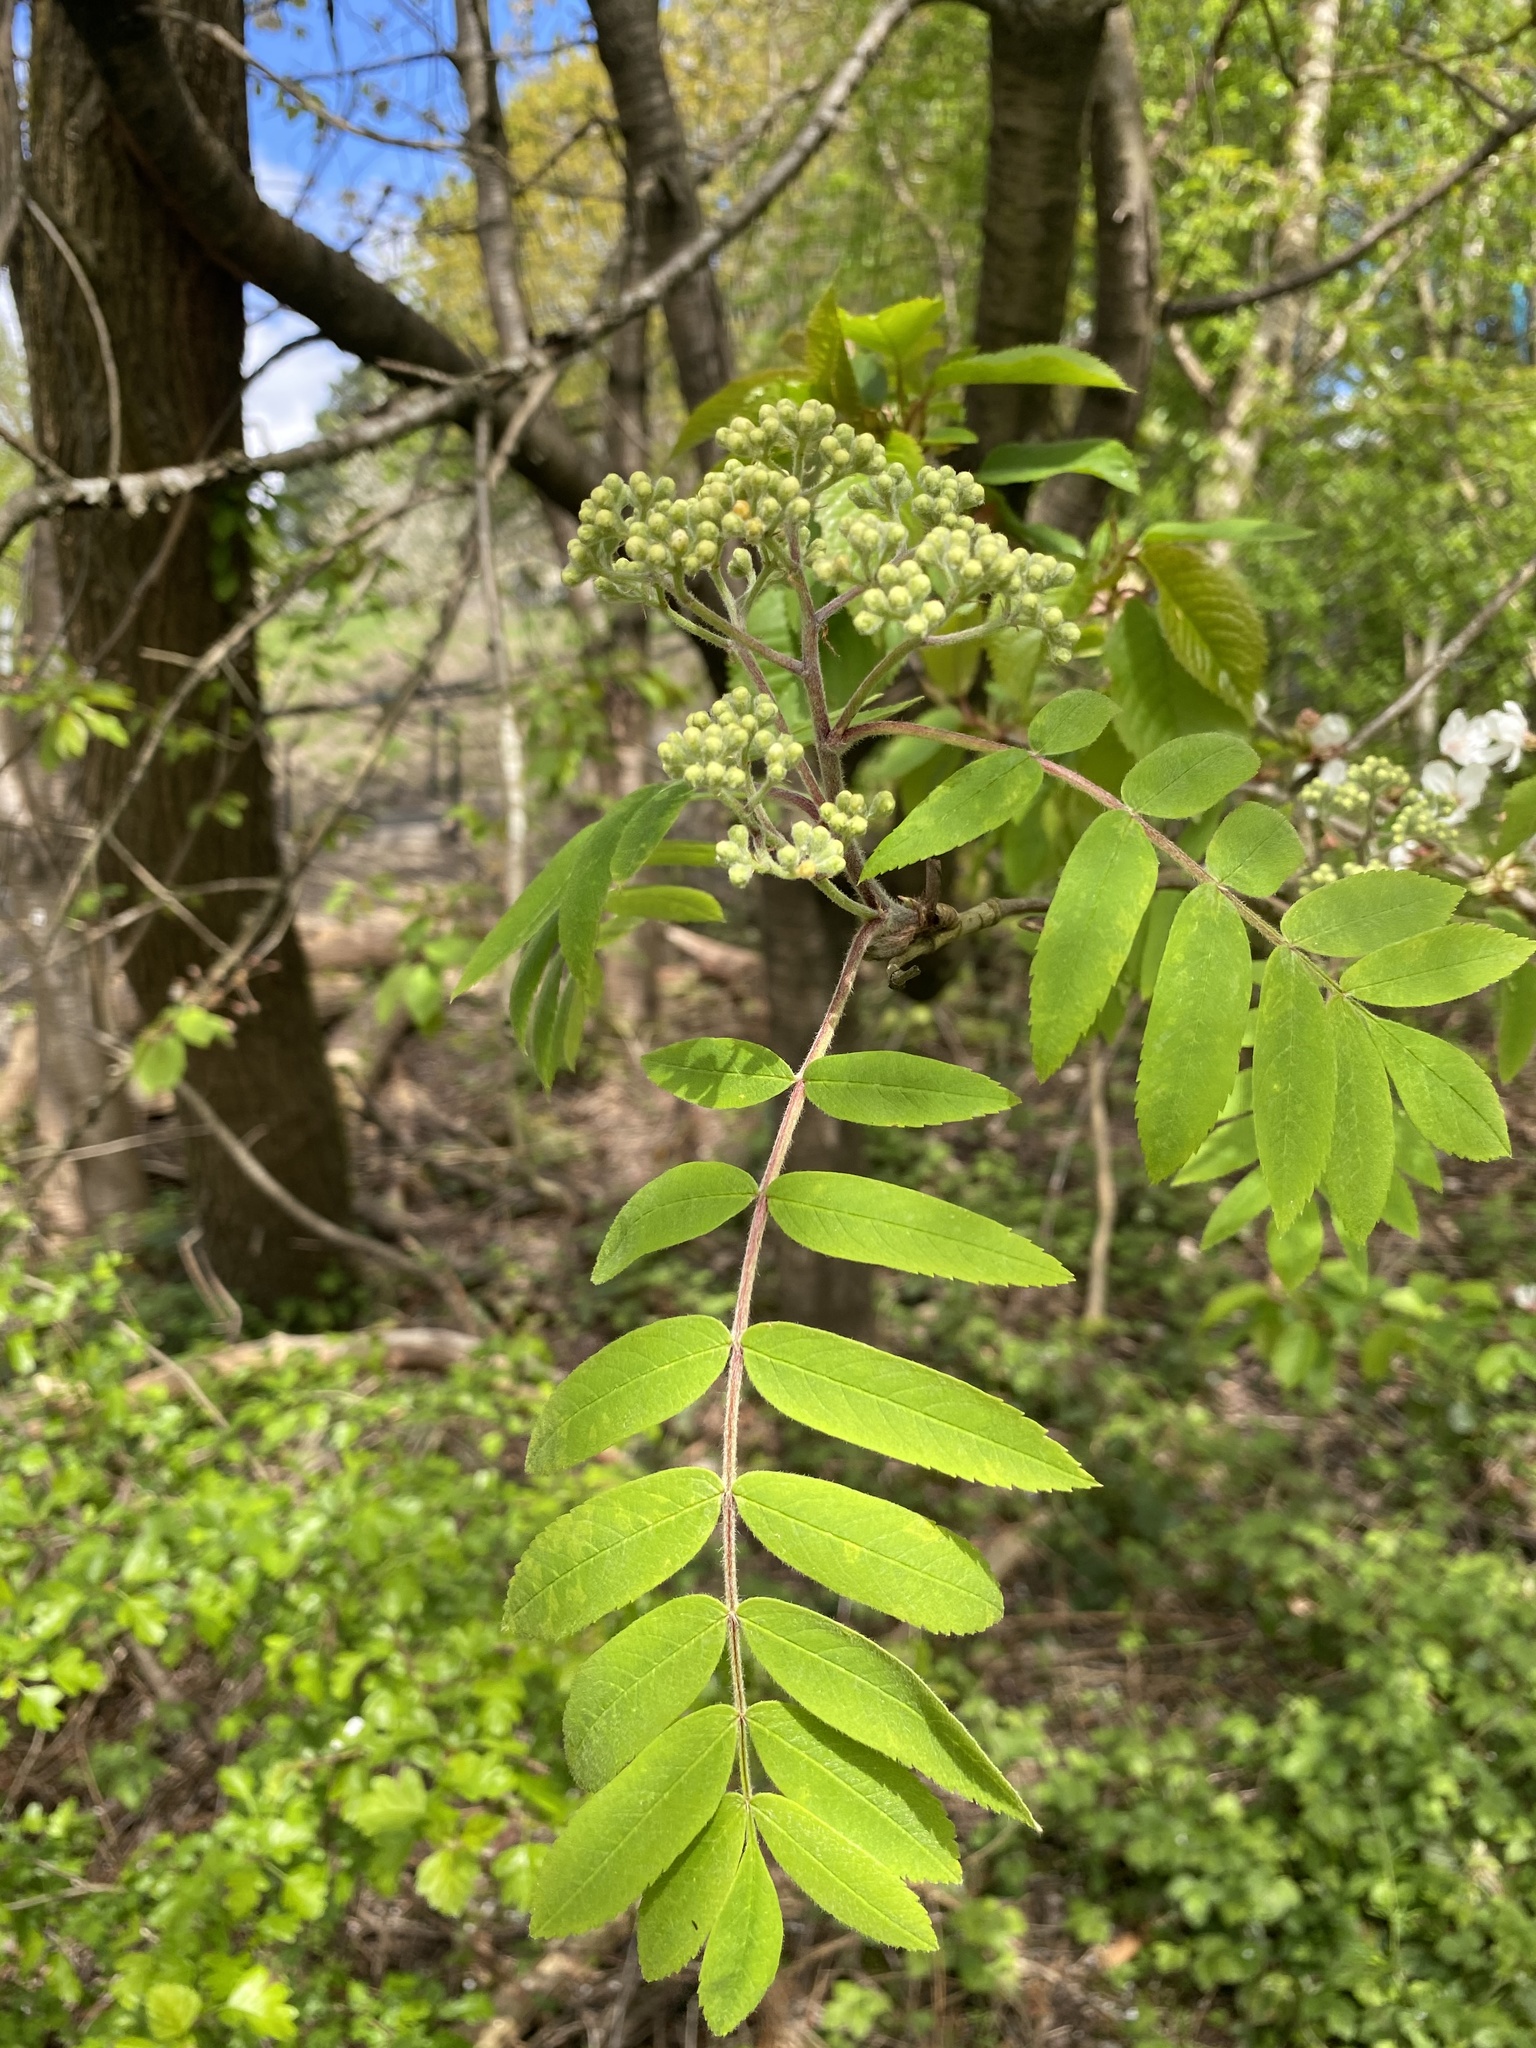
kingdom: Plantae
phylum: Tracheophyta
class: Magnoliopsida
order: Rosales
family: Rosaceae
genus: Sorbus
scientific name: Sorbus aucuparia
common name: Rowan
